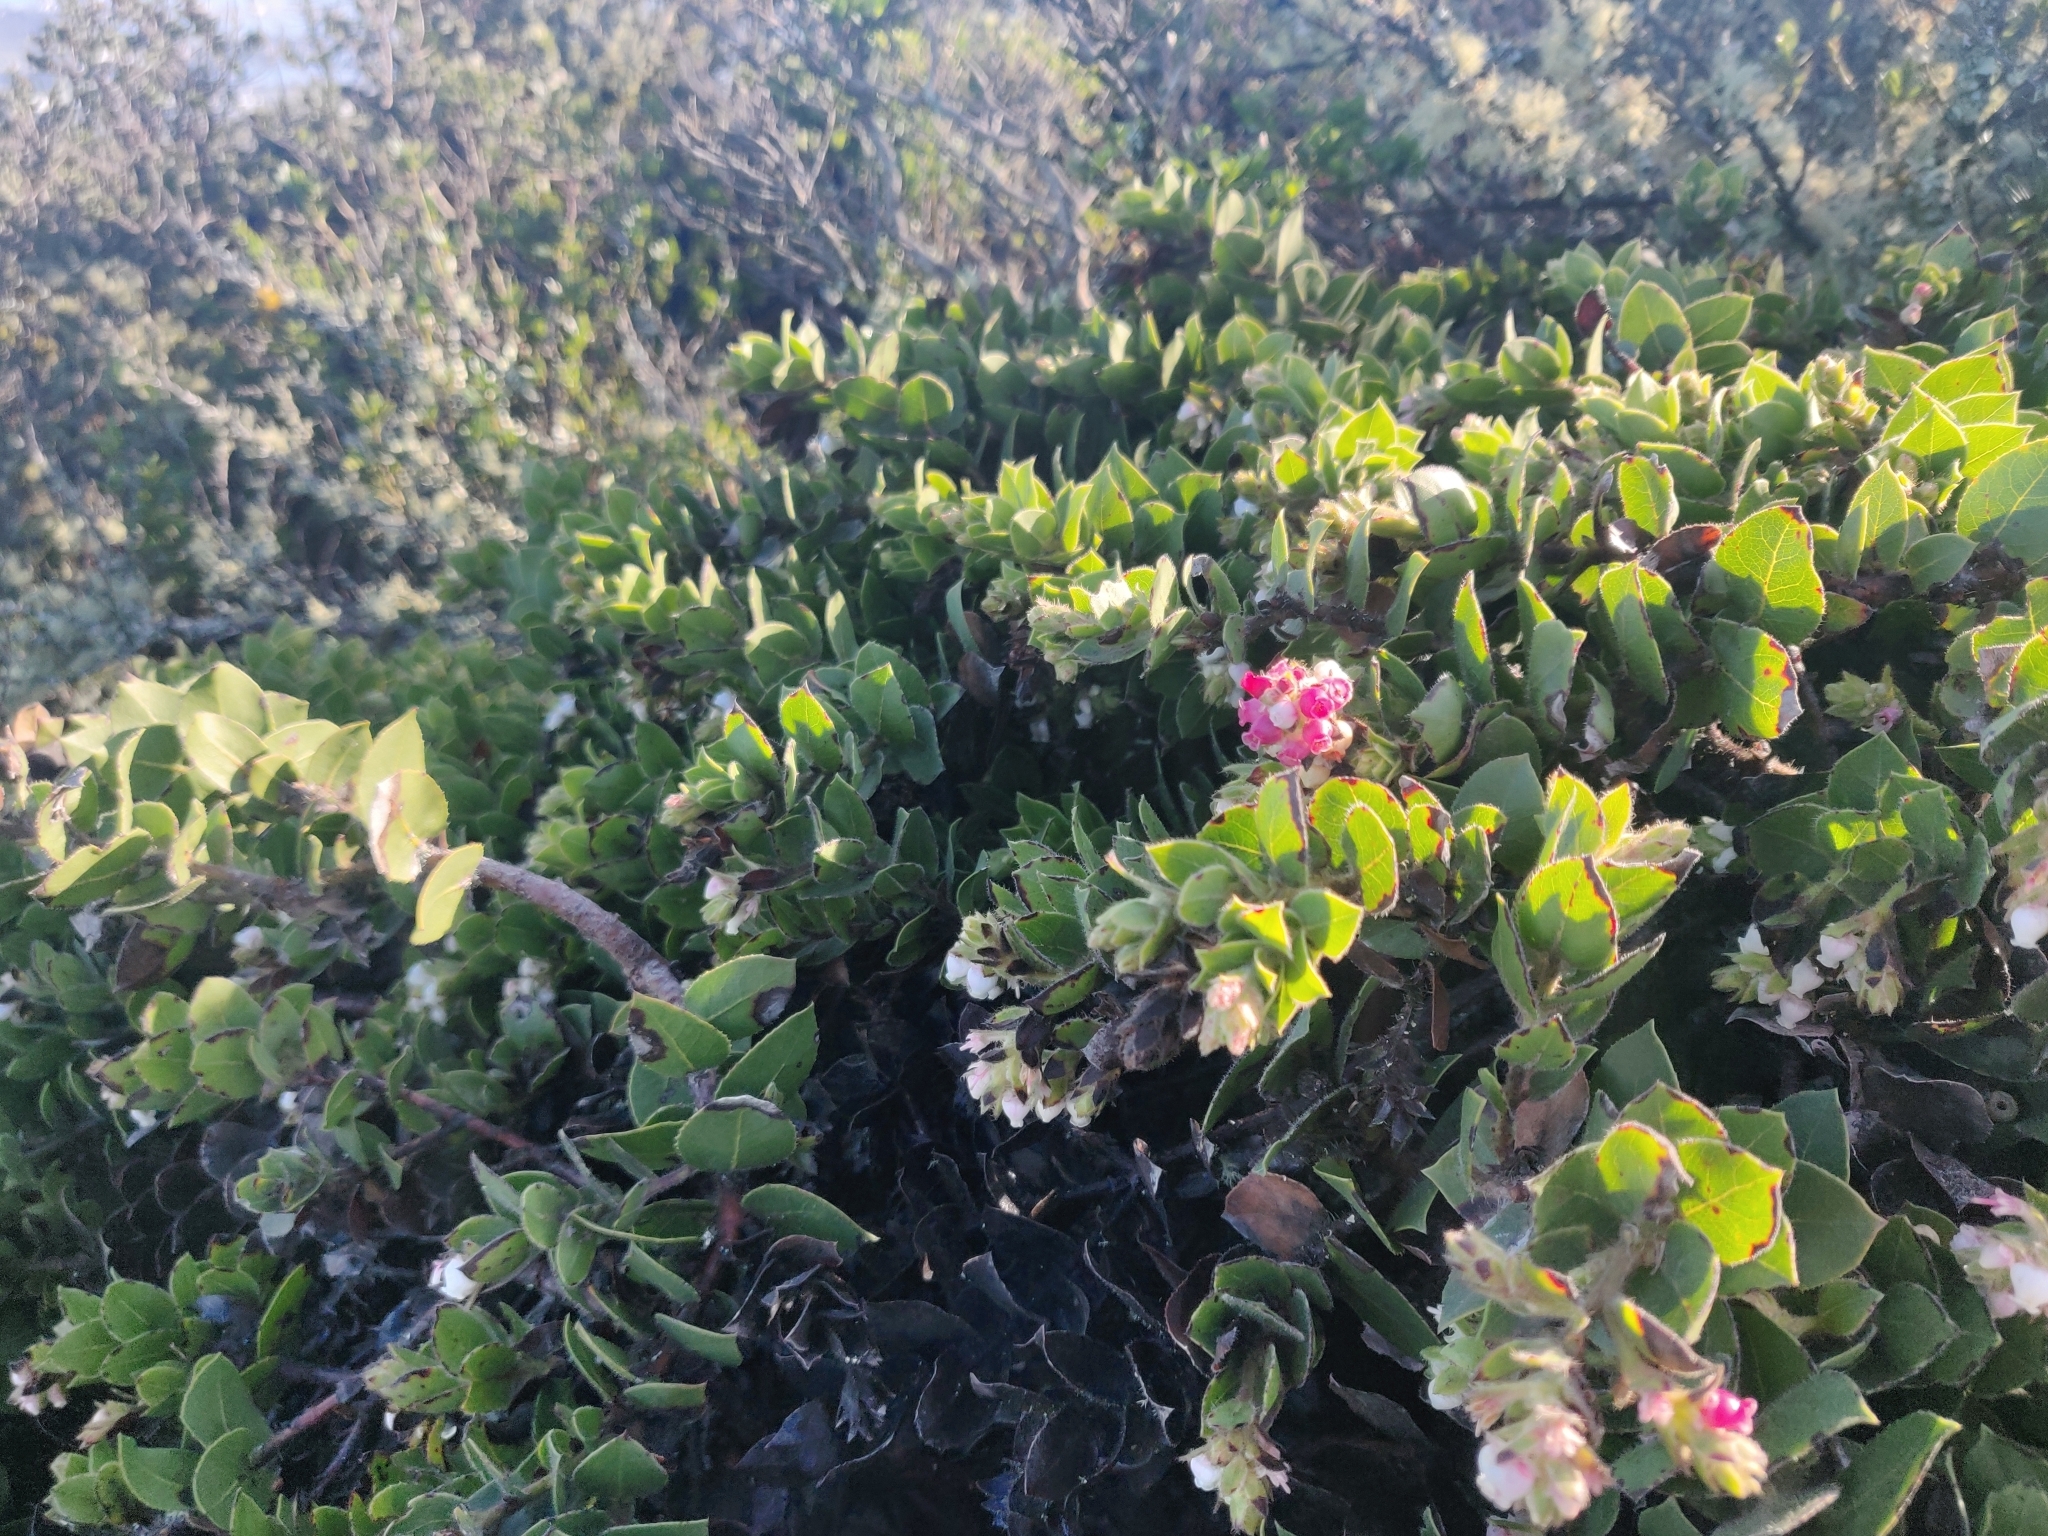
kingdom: Plantae
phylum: Tracheophyta
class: Magnoliopsida
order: Ericales
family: Ericaceae
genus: Arctostaphylos
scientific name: Arctostaphylos imbricata
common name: San bruno mountain manzanita
